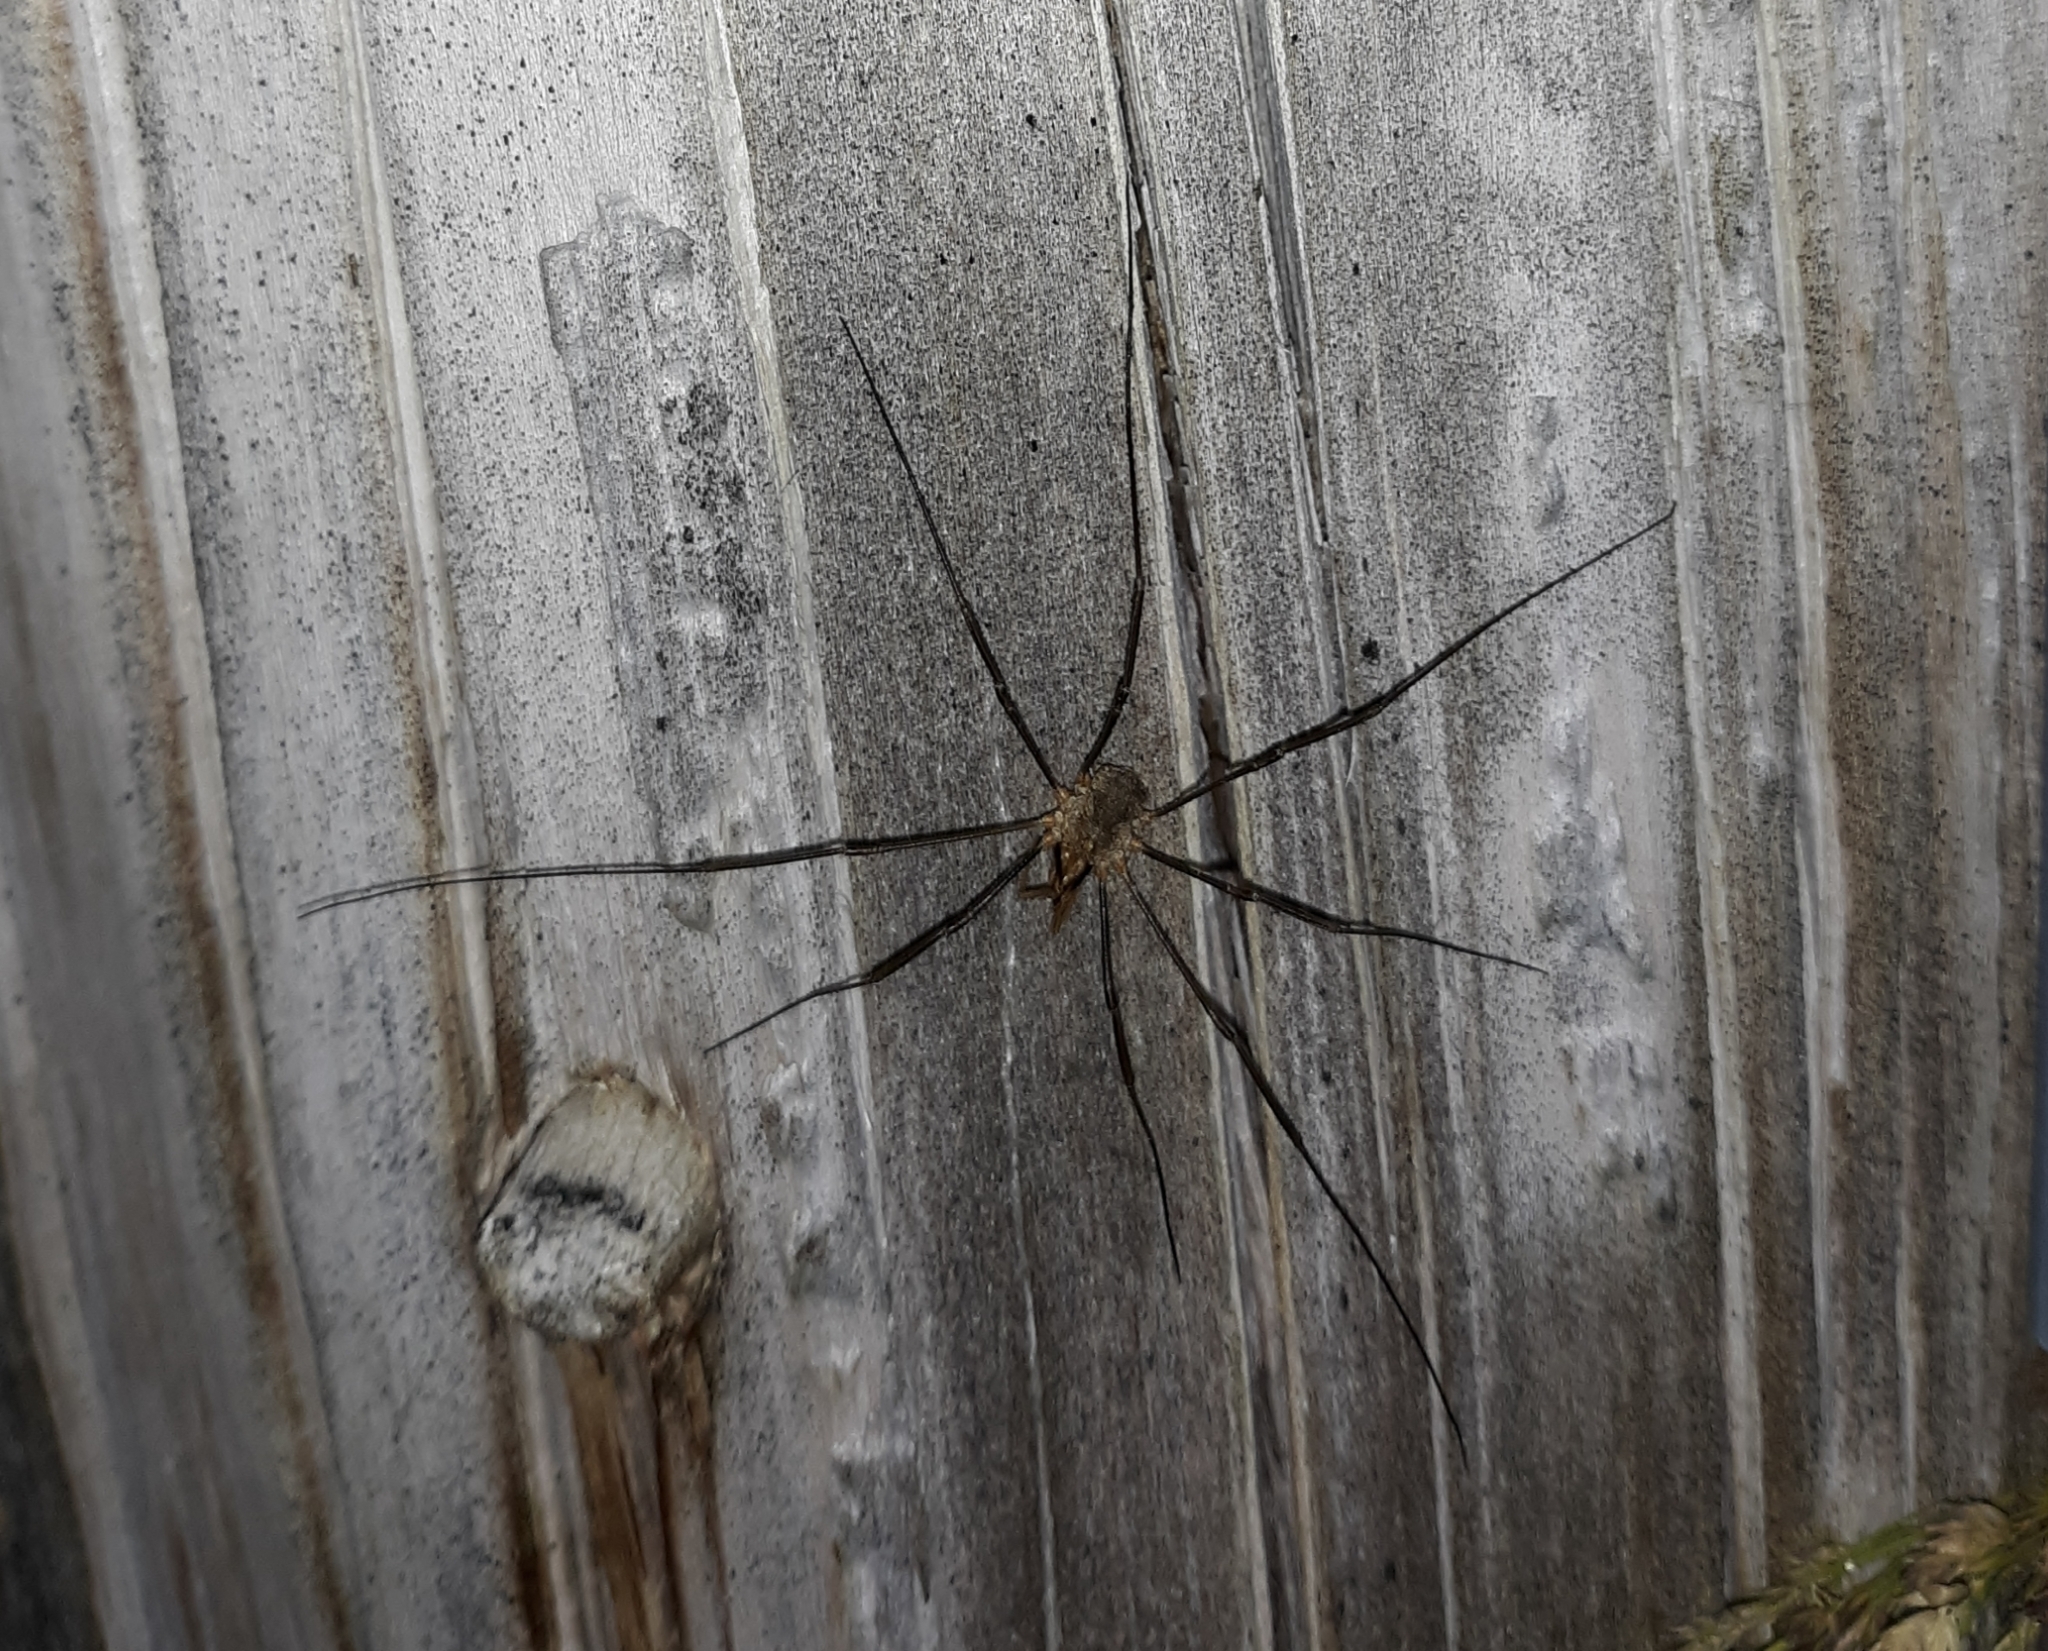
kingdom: Animalia
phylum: Arthropoda
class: Arachnida
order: Opiliones
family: Phalangiidae
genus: Phalangium
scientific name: Phalangium opilio
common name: Daddy longleg
